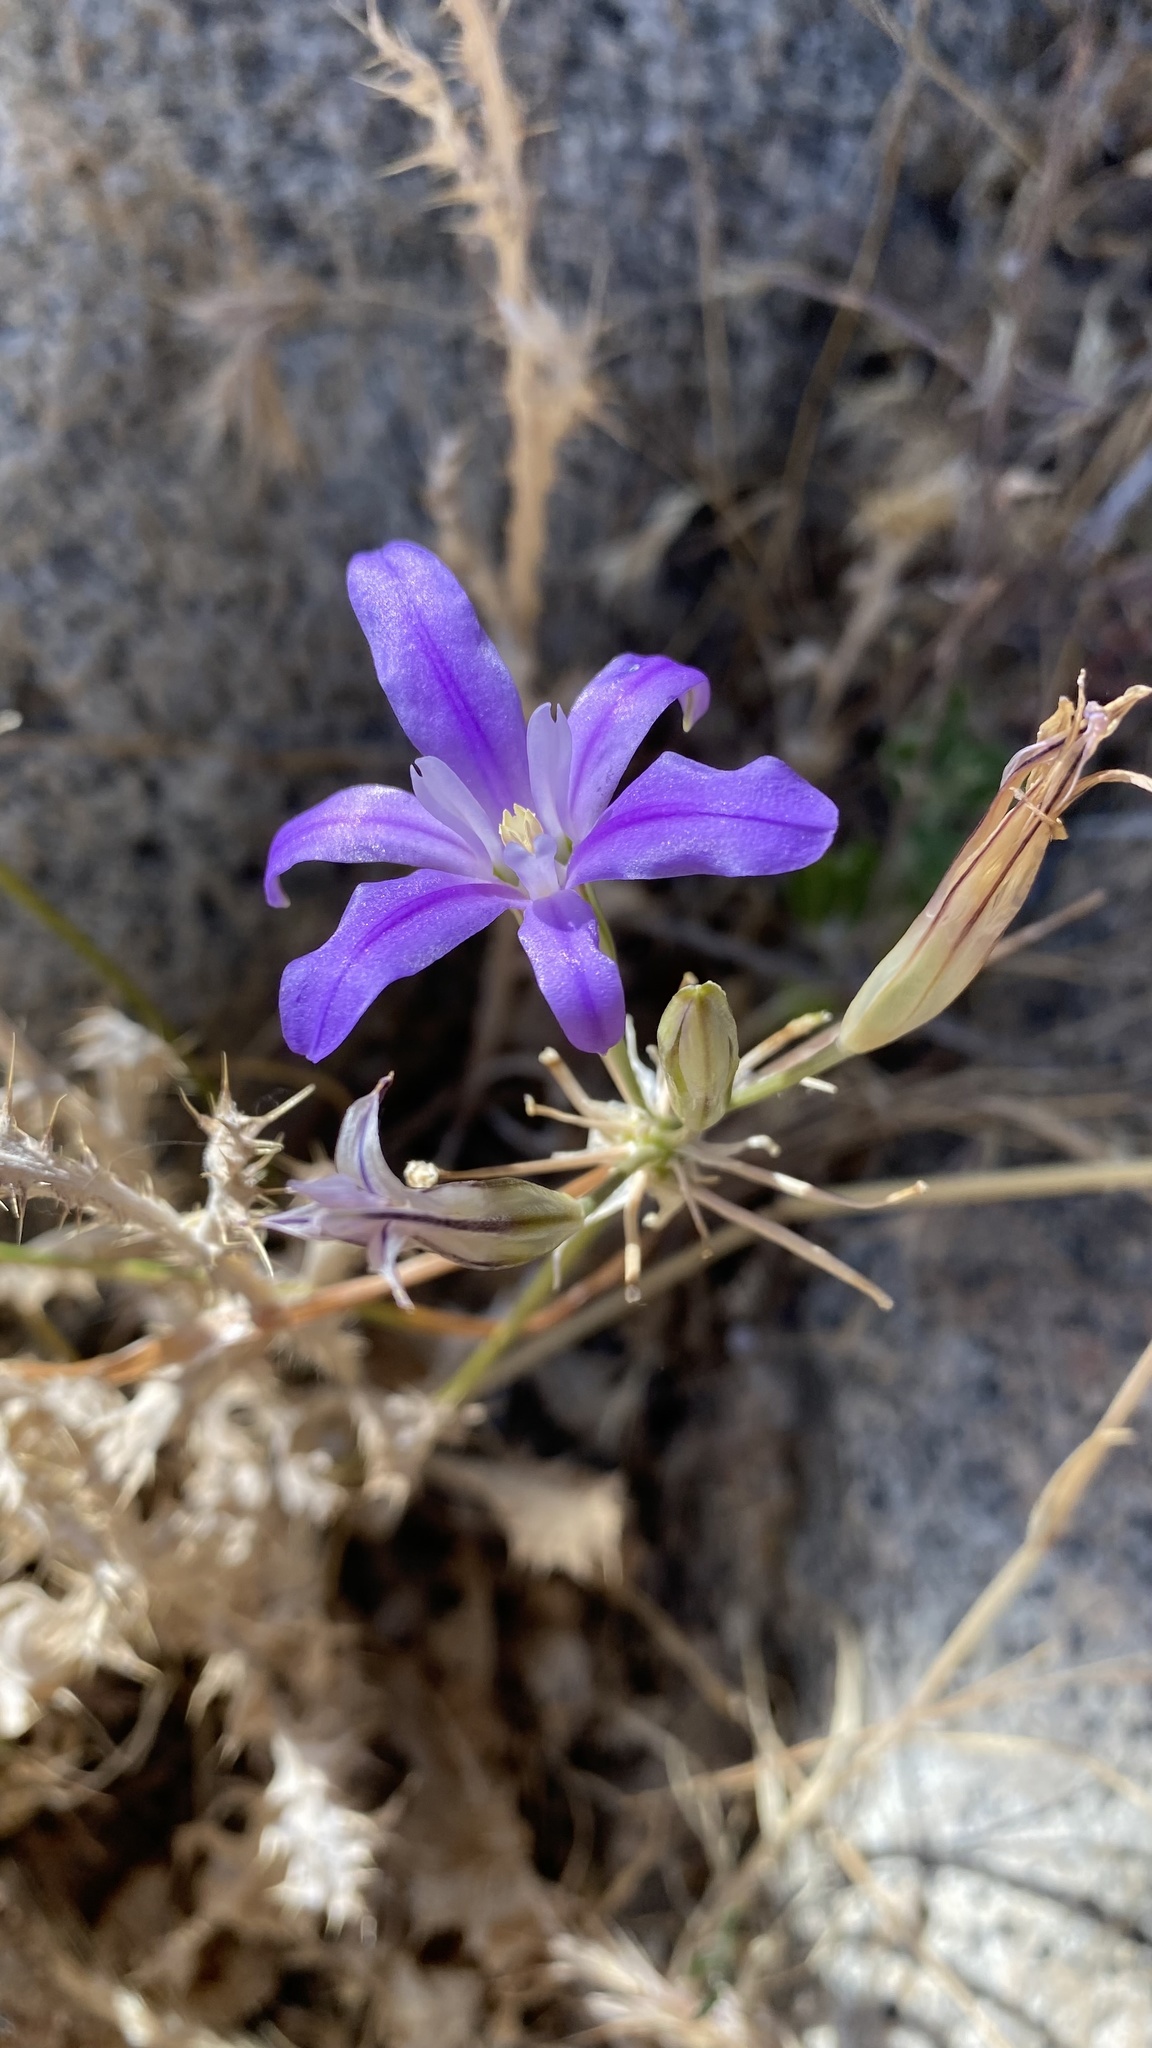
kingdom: Plantae
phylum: Tracheophyta
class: Liliopsida
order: Asparagales
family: Asparagaceae
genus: Brodiaea
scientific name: Brodiaea terrestris
